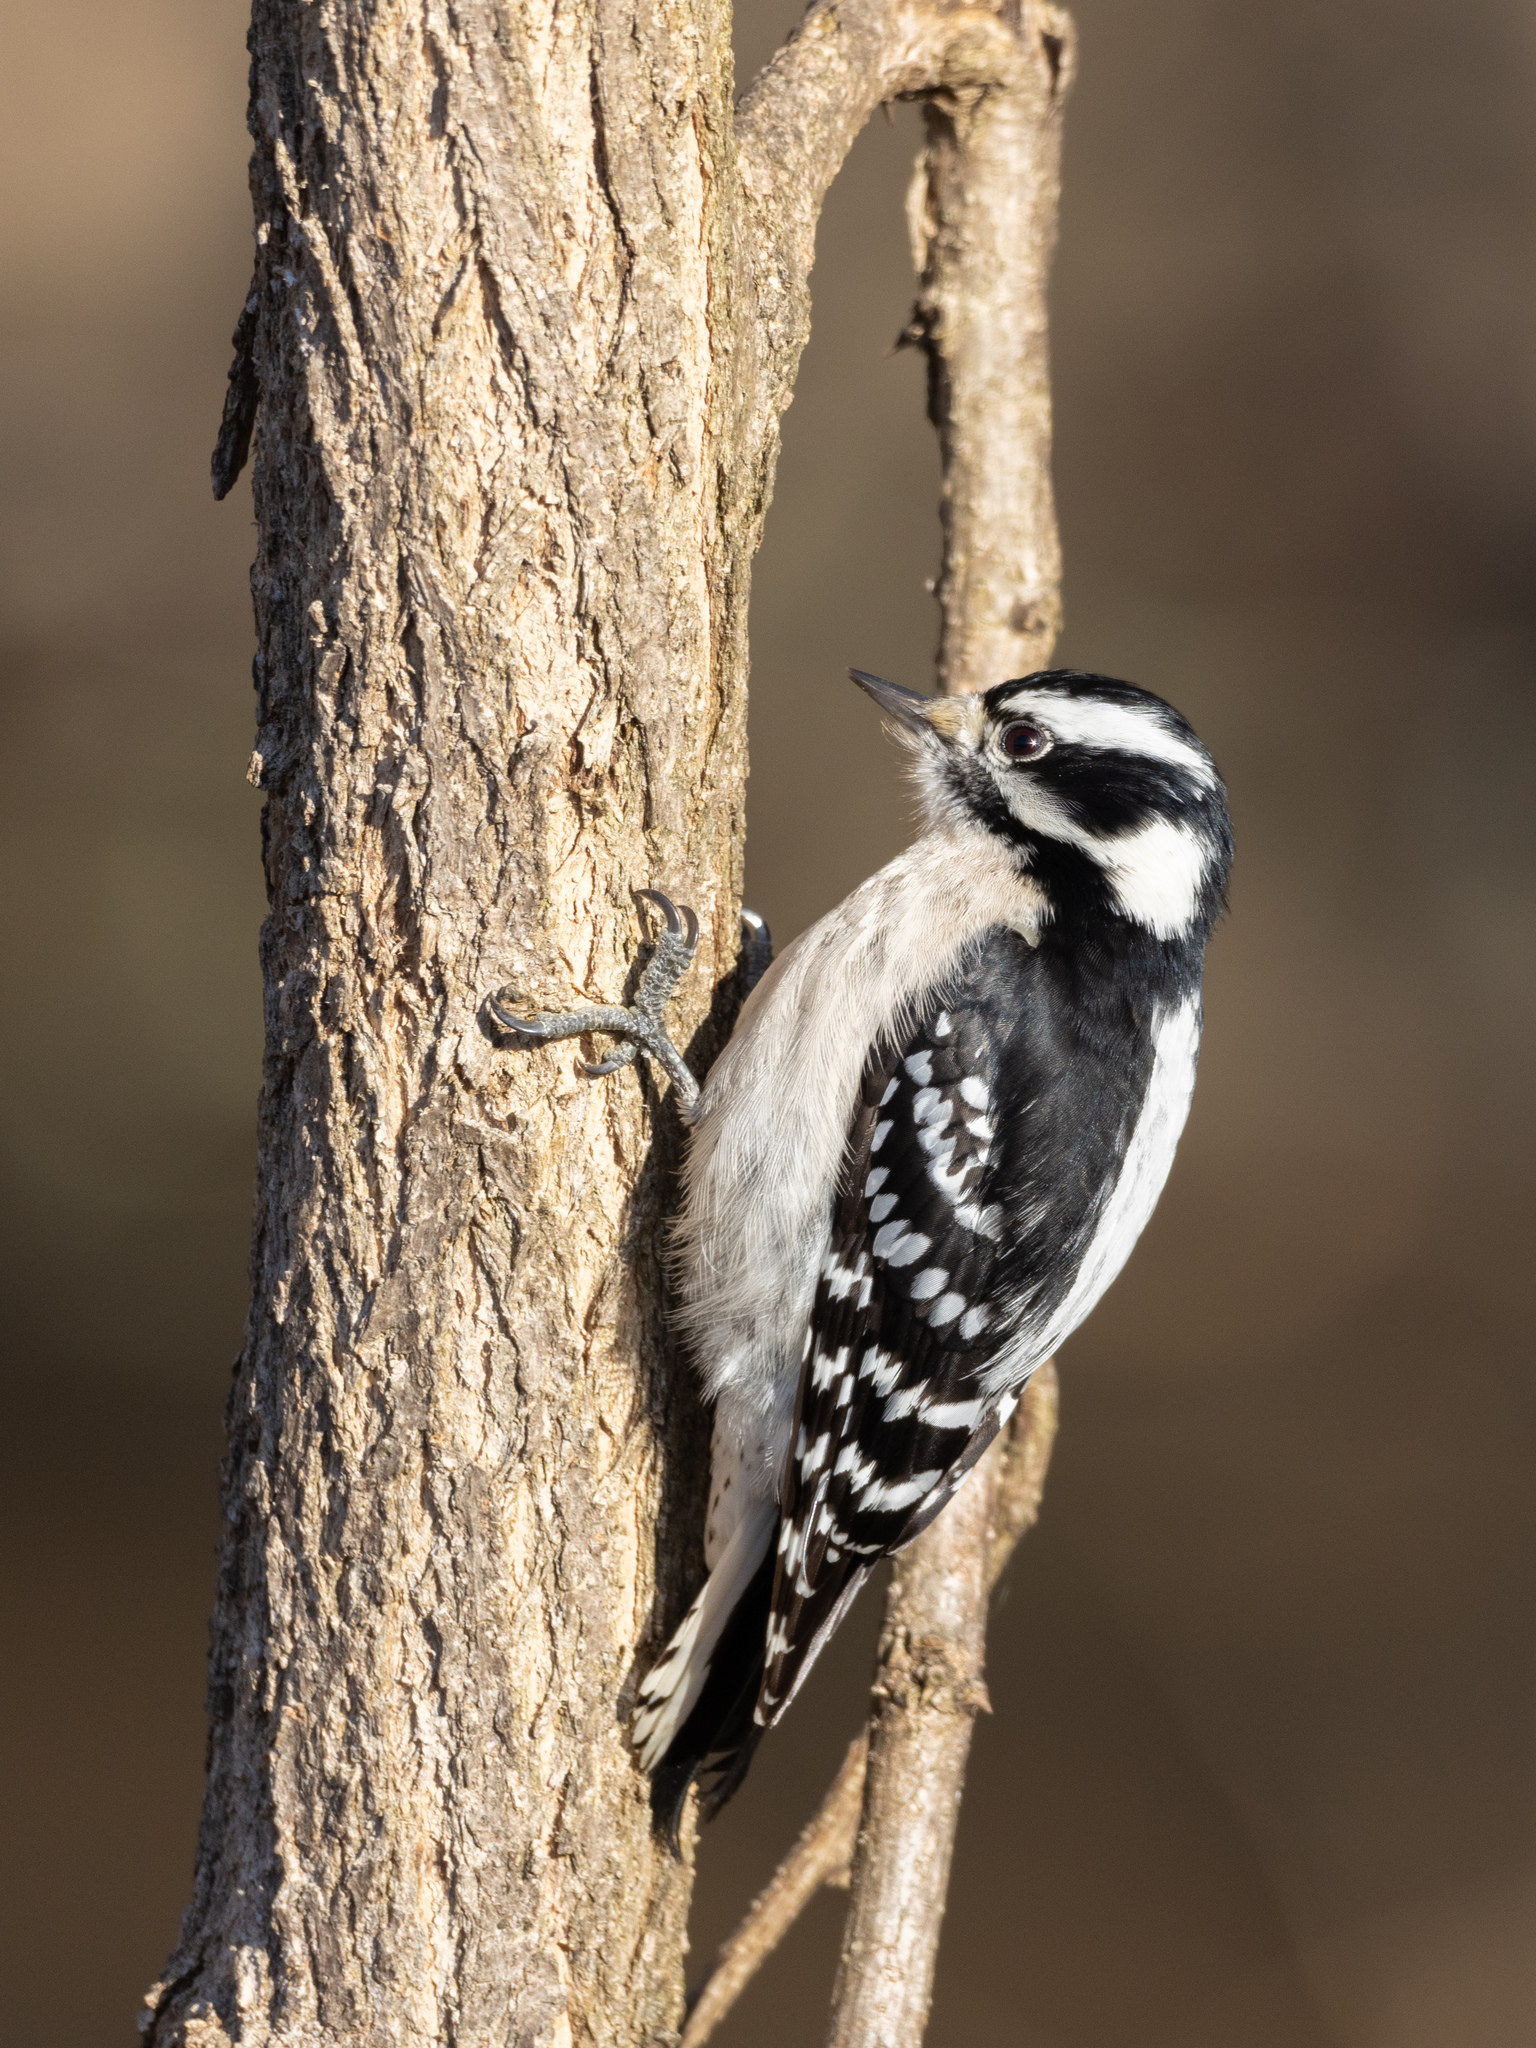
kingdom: Animalia
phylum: Chordata
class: Aves
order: Piciformes
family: Picidae
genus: Dryobates
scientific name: Dryobates pubescens
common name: Downy woodpecker
